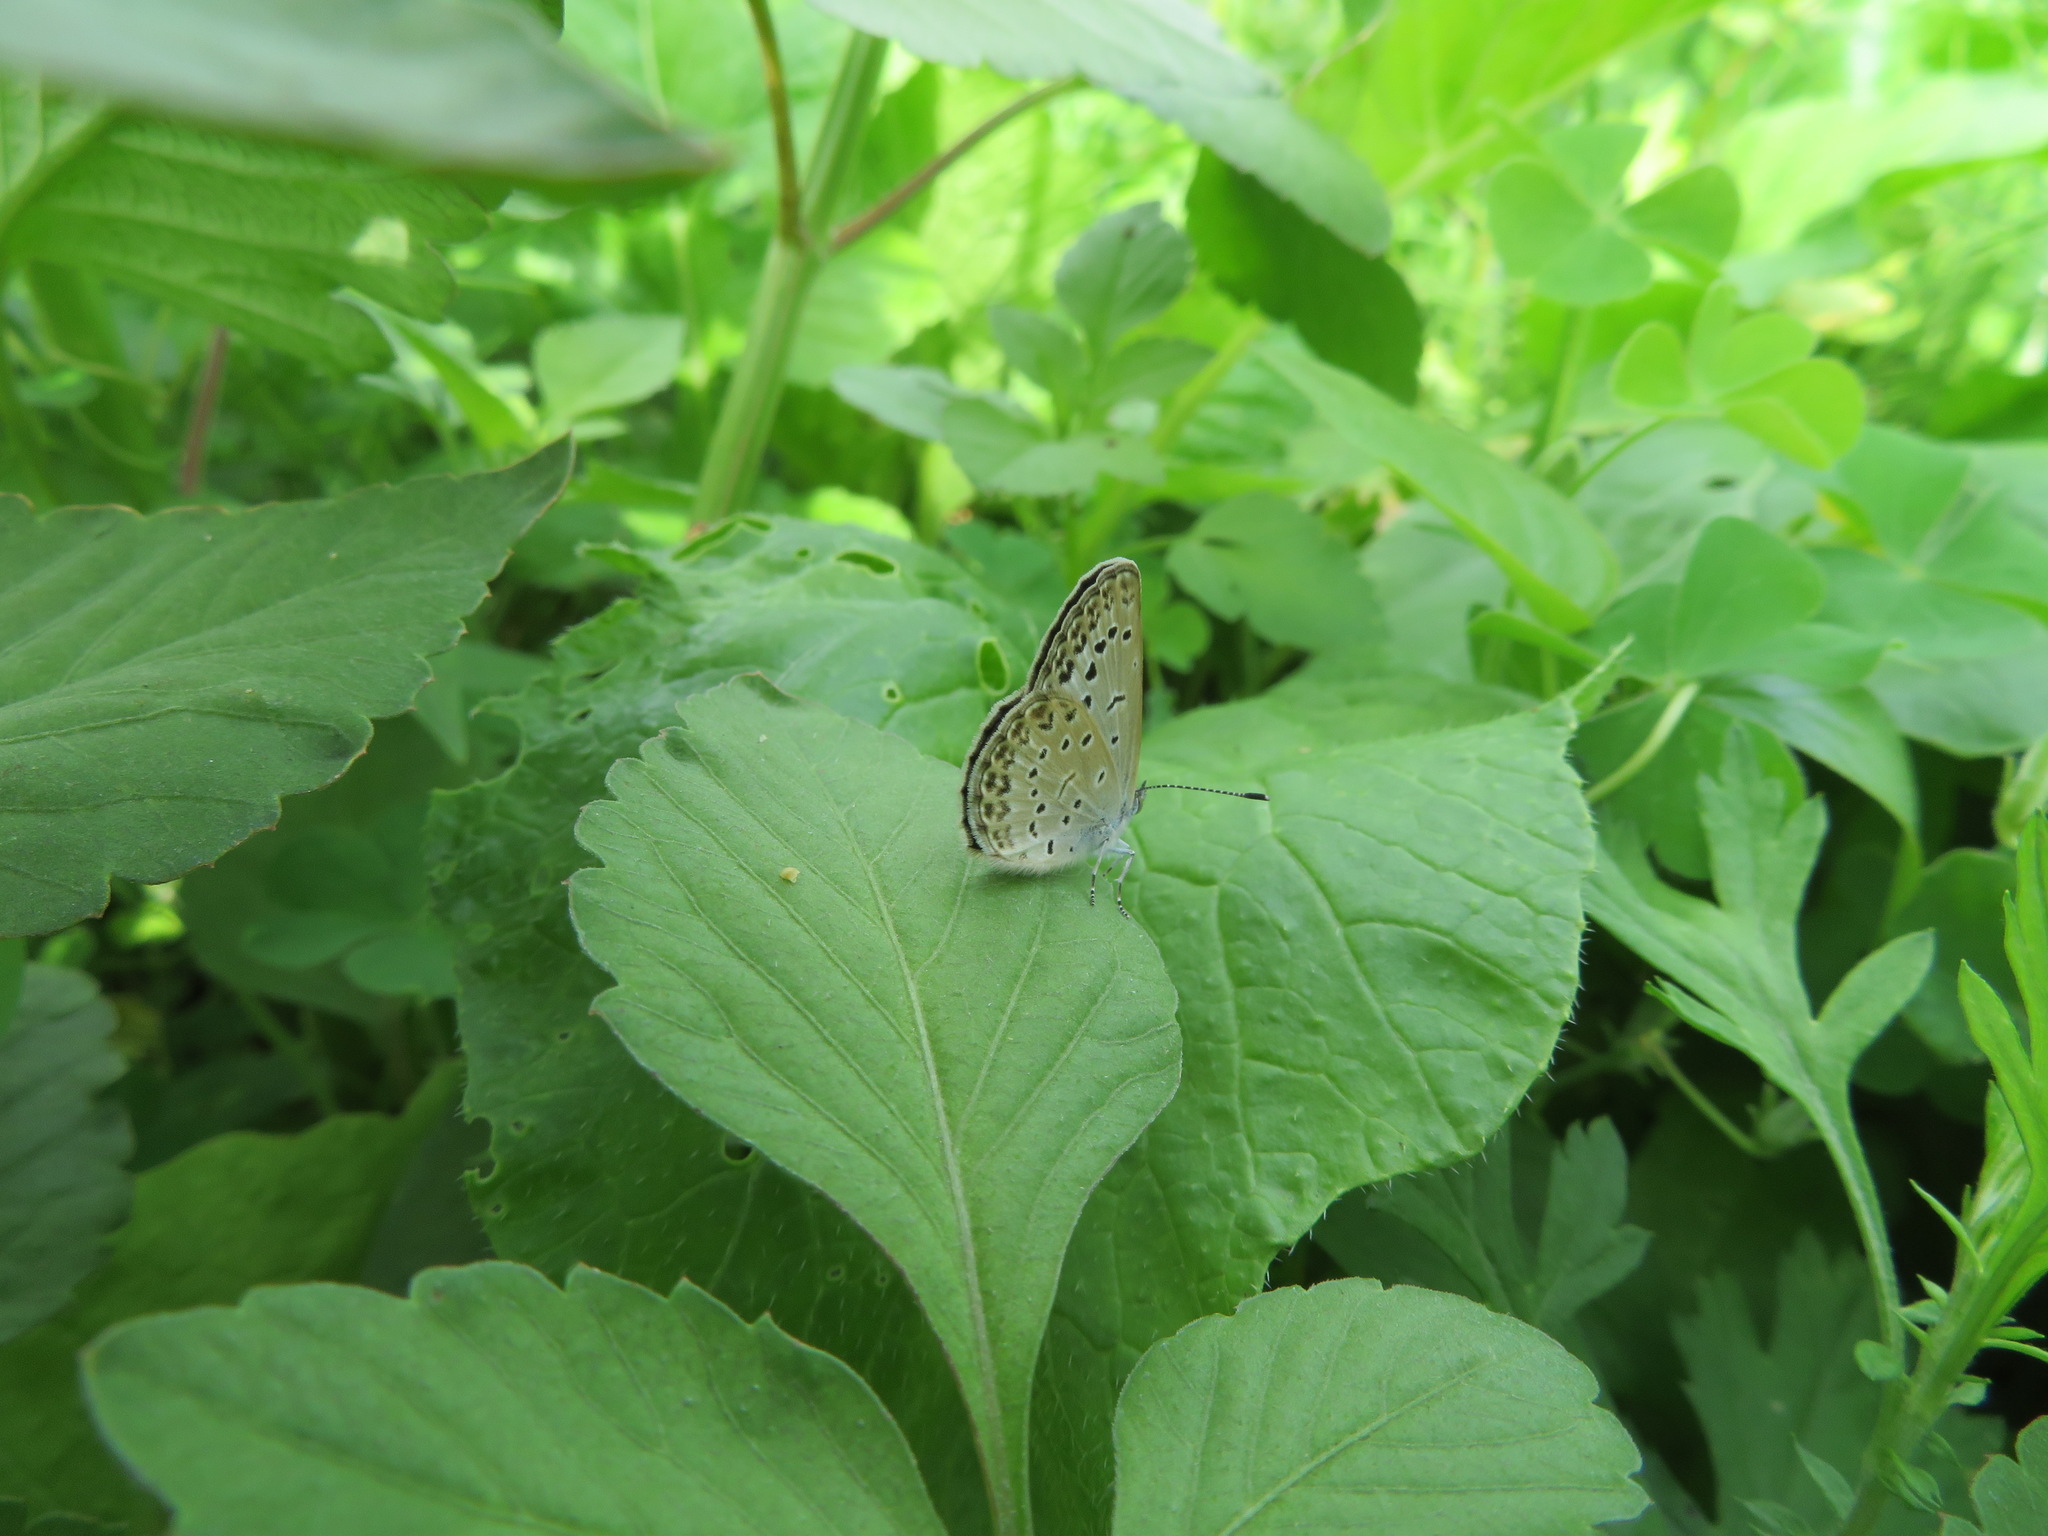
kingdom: Animalia
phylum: Arthropoda
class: Insecta
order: Lepidoptera
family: Lycaenidae
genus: Pseudozizeeria
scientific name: Pseudozizeeria maha
